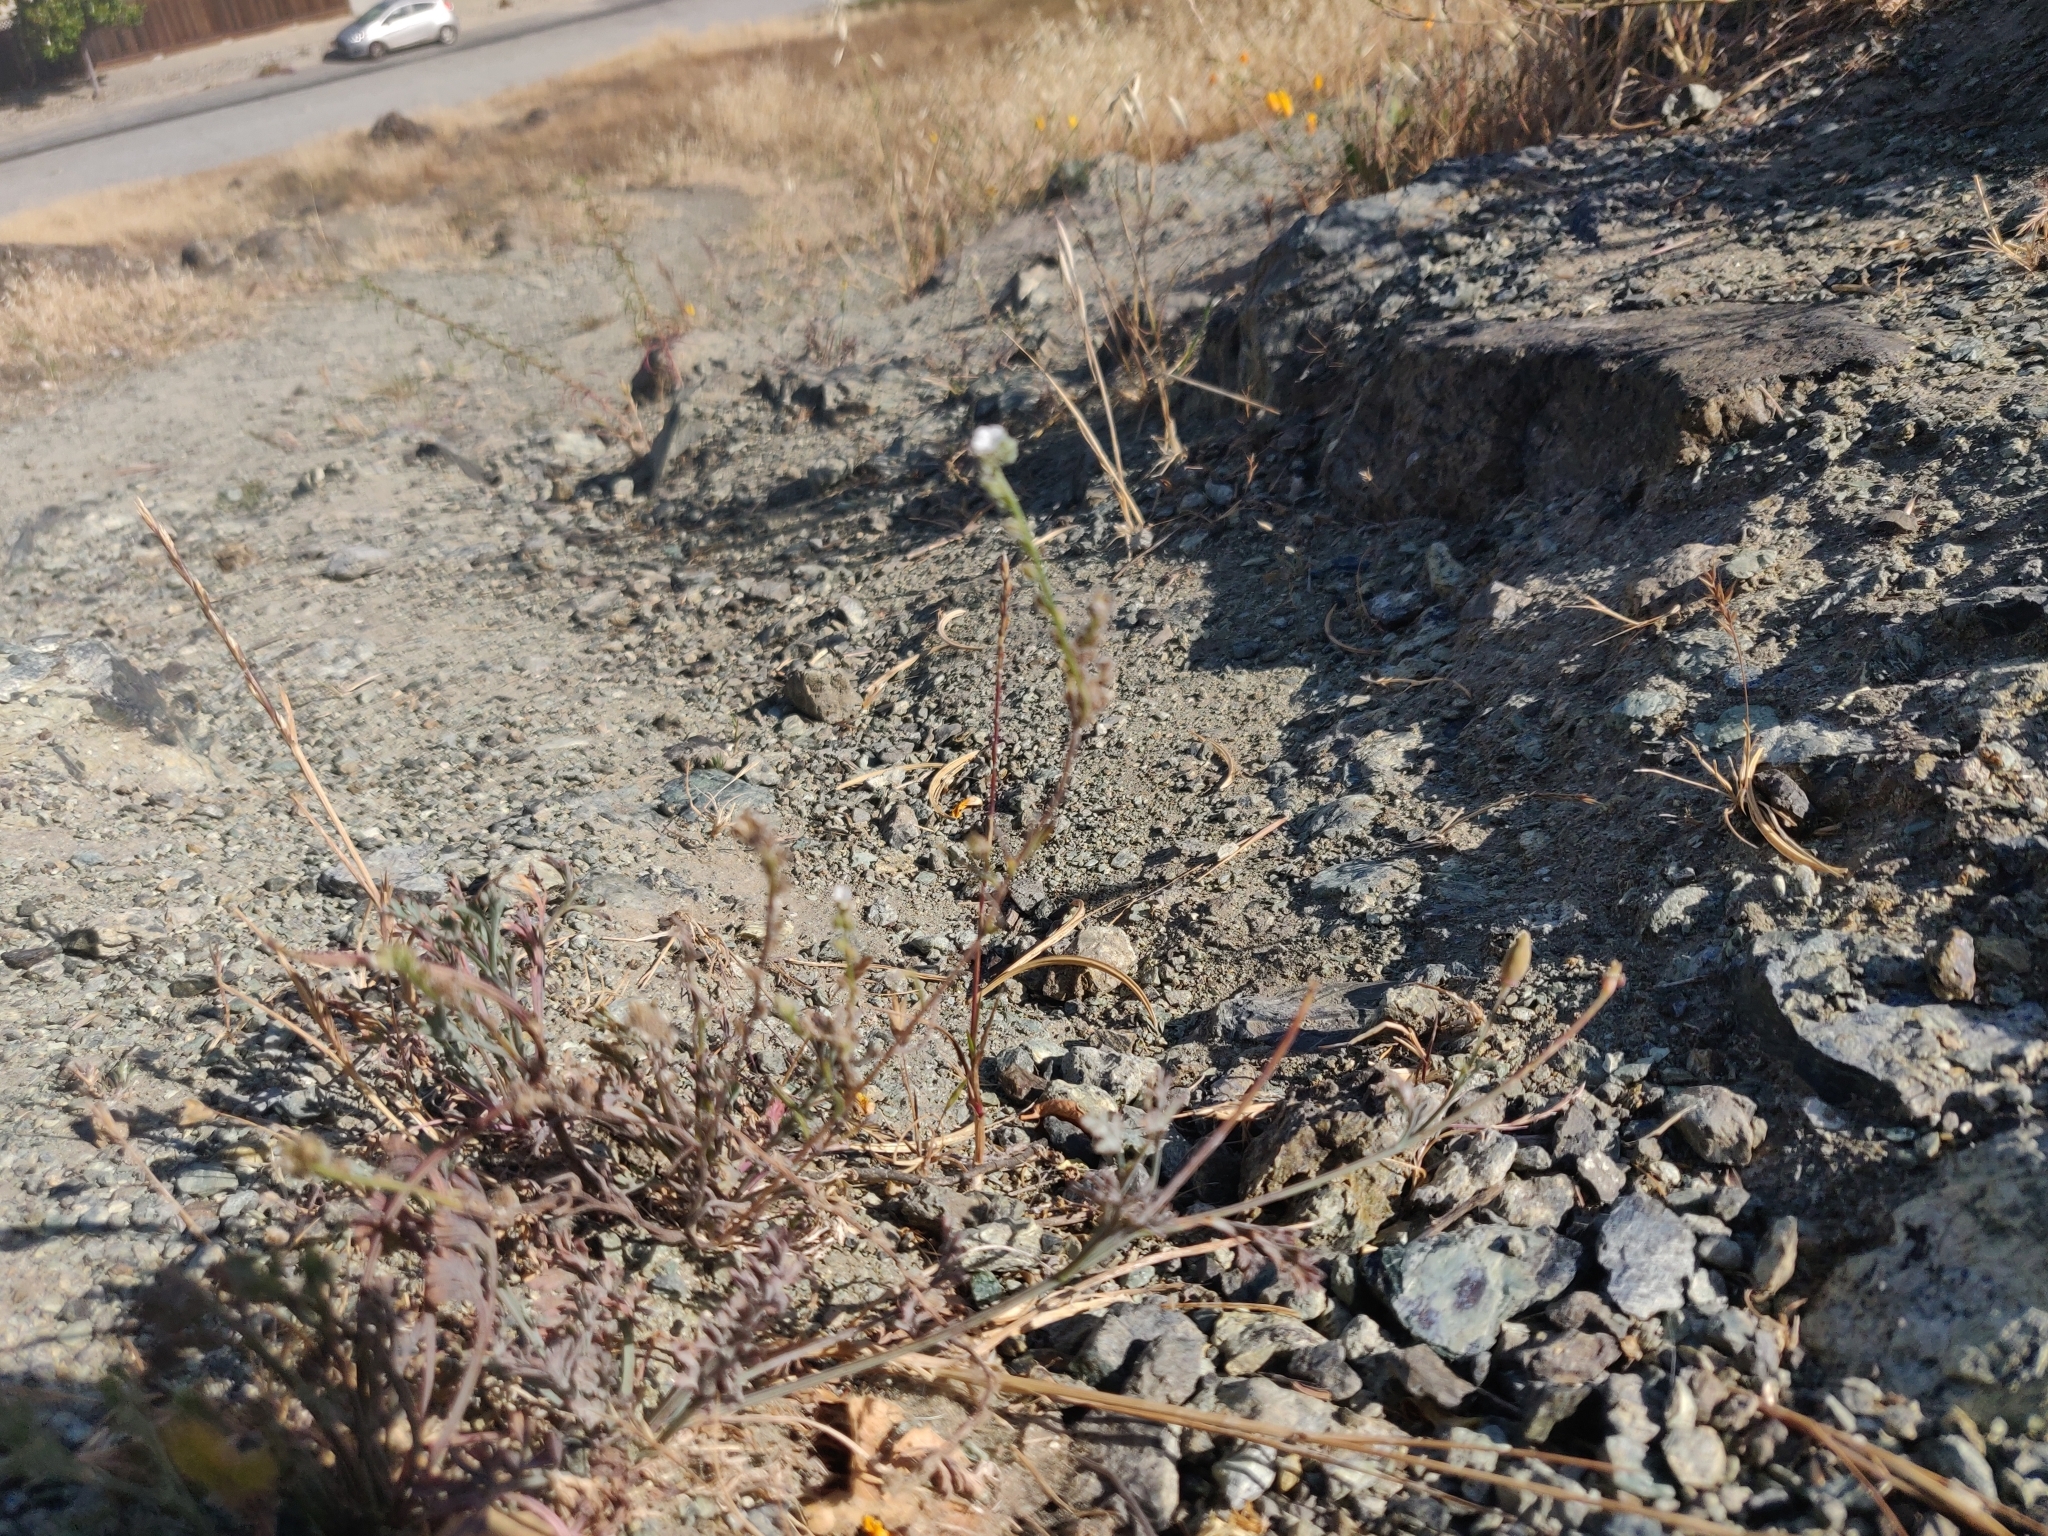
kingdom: Plantae
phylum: Tracheophyta
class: Magnoliopsida
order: Boraginales
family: Boraginaceae
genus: Cryptantha
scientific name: Cryptantha flaccida
